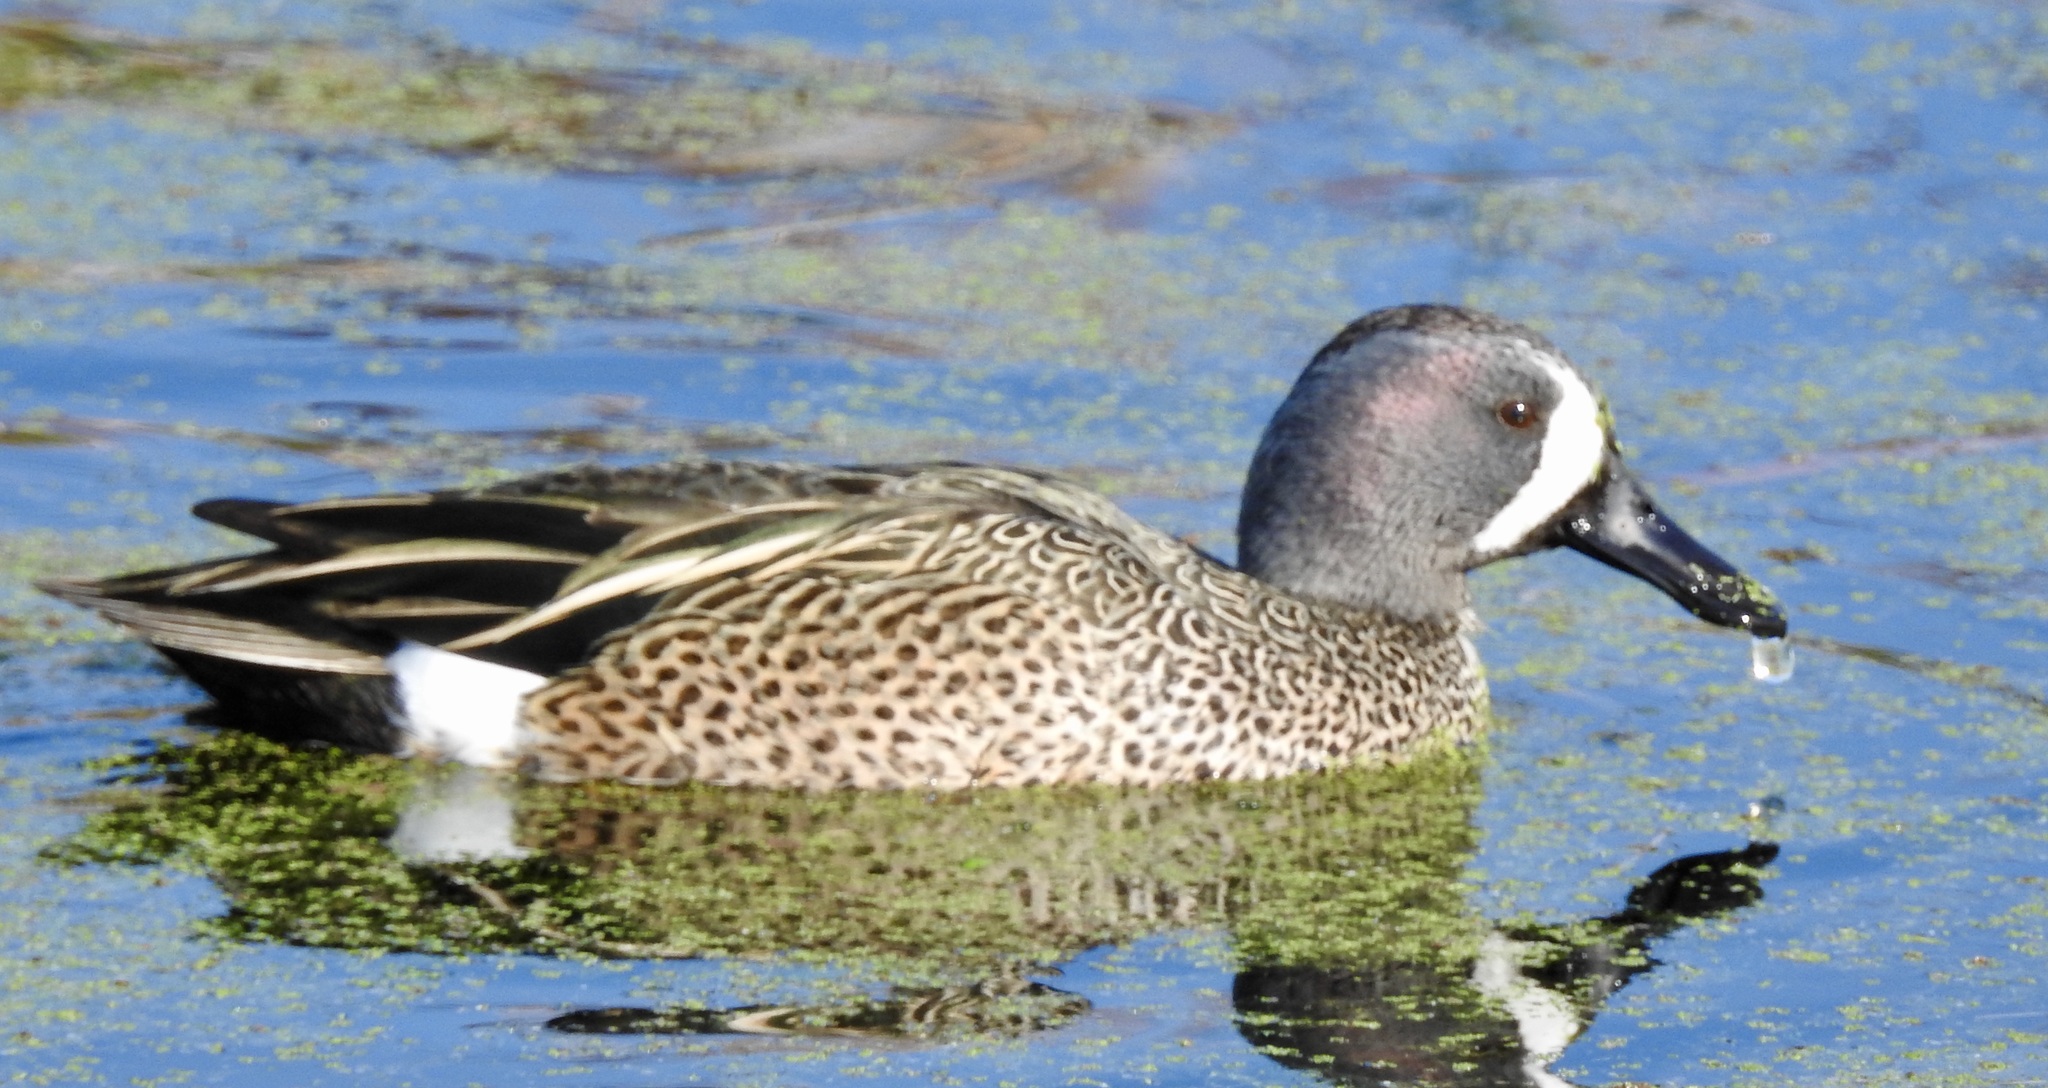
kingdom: Animalia
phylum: Chordata
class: Aves
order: Anseriformes
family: Anatidae
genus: Spatula
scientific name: Spatula discors
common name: Blue-winged teal
